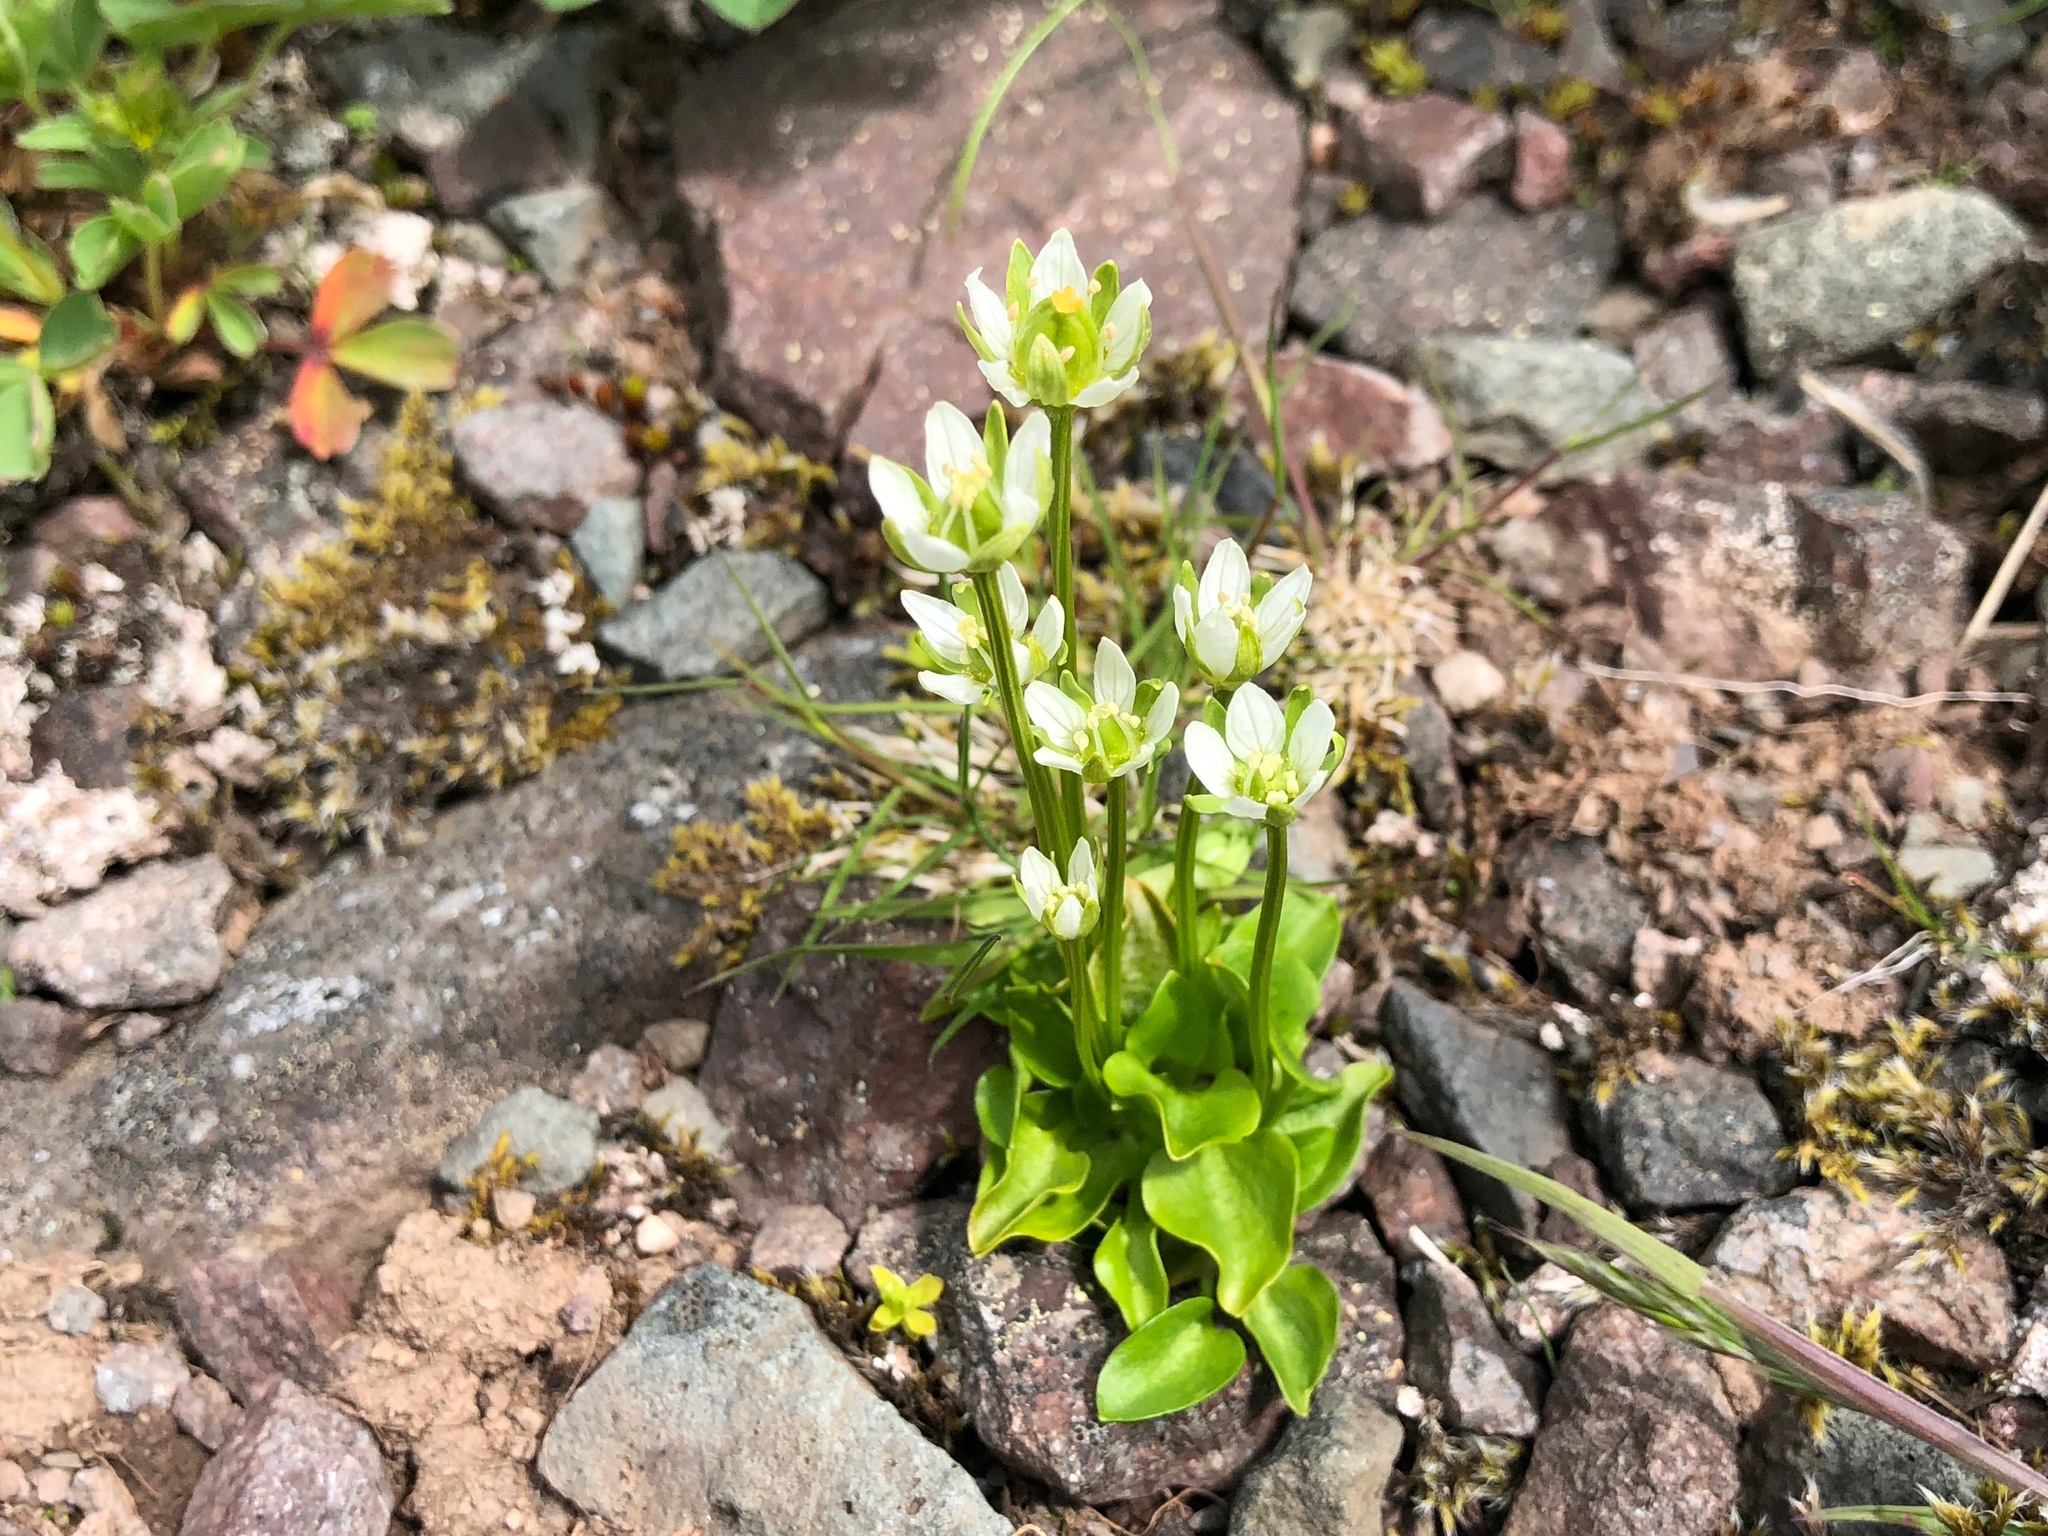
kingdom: Plantae
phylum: Tracheophyta
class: Magnoliopsida
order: Celastrales
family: Parnassiaceae
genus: Parnassia
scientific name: Parnassia kotzebuei
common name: Kotzebue's grass-of-parnassus
